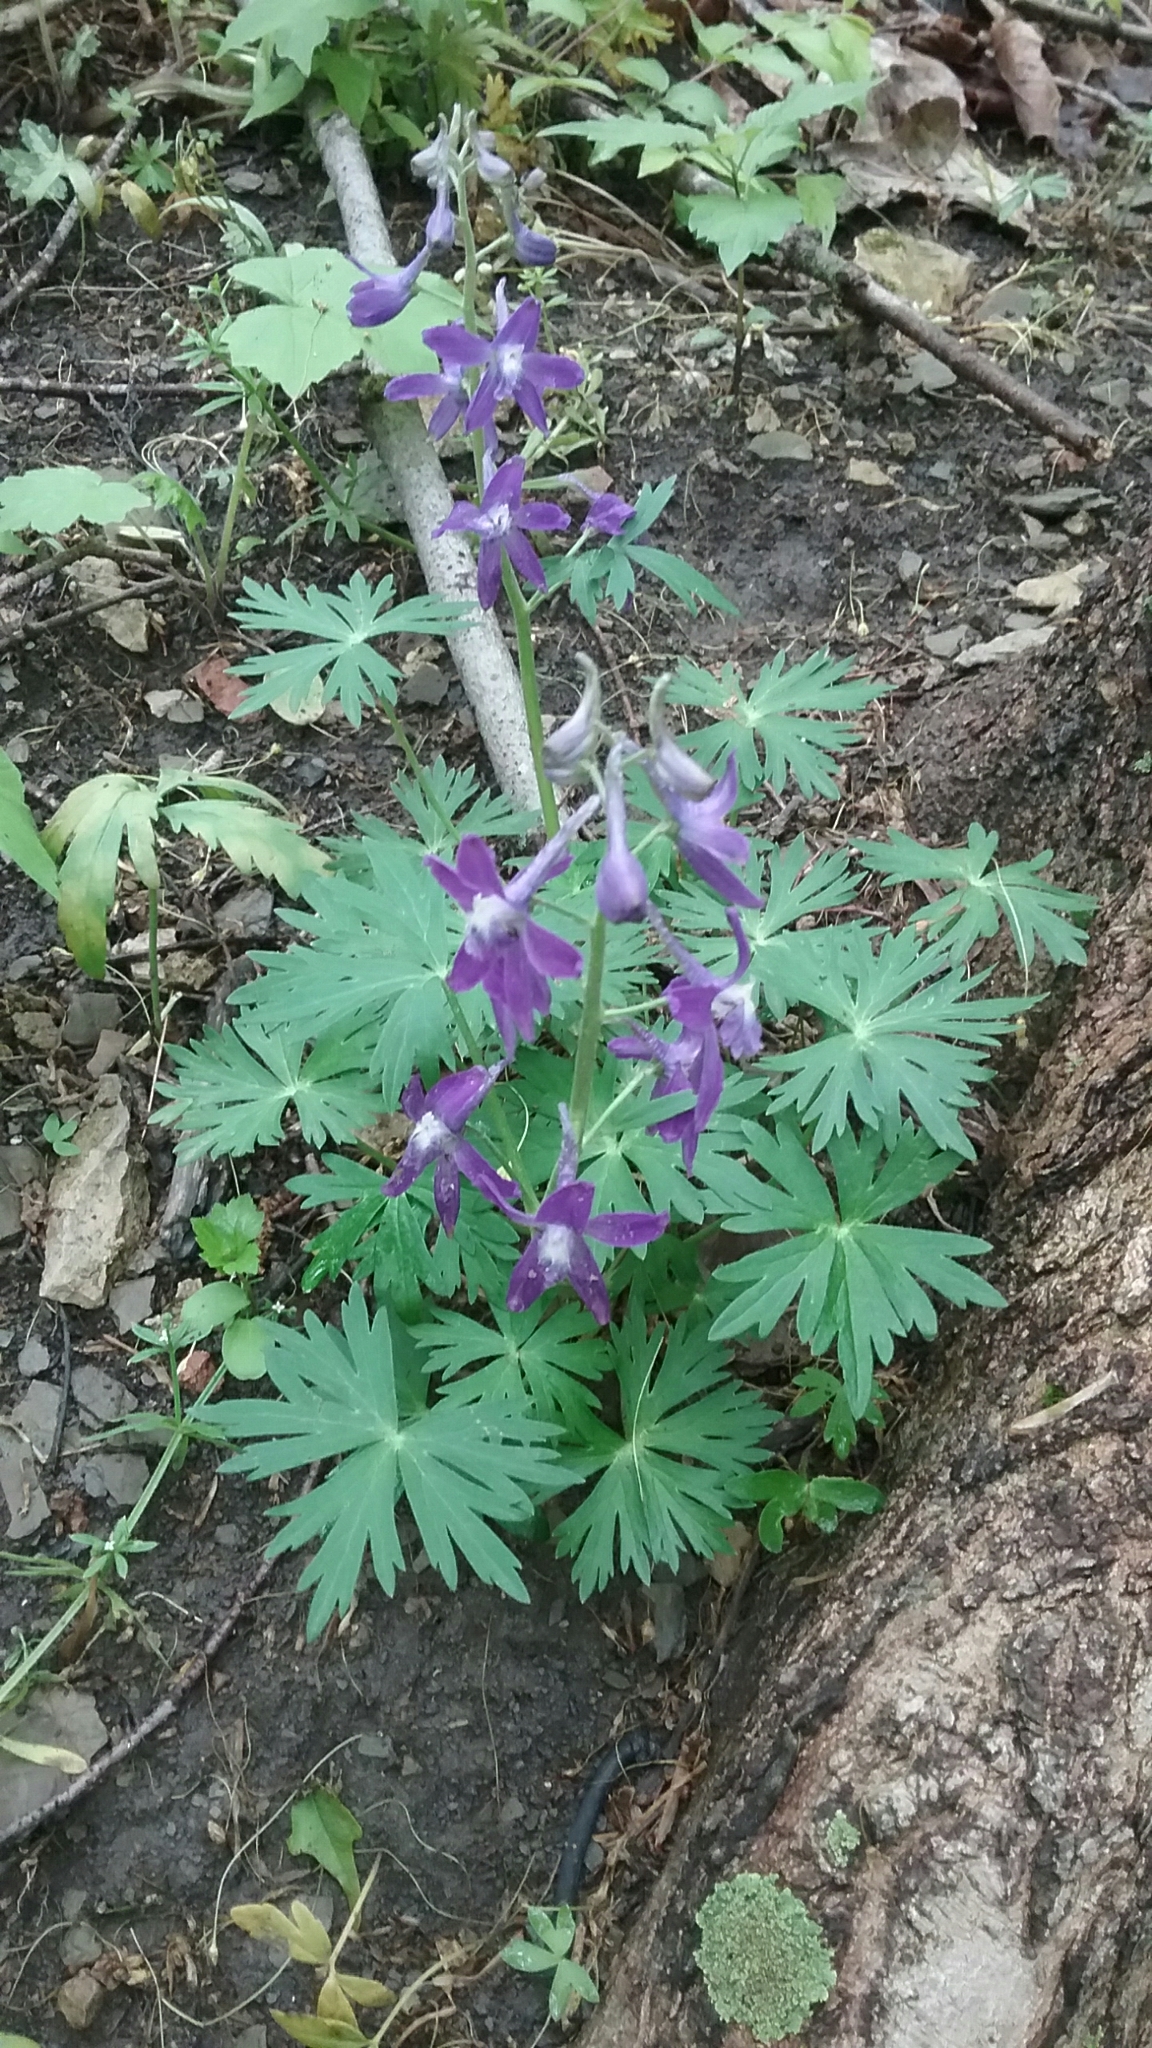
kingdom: Plantae
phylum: Tracheophyta
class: Magnoliopsida
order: Ranunculales
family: Ranunculaceae
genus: Delphinium
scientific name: Delphinium tricorne
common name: Dwarf larkspur
